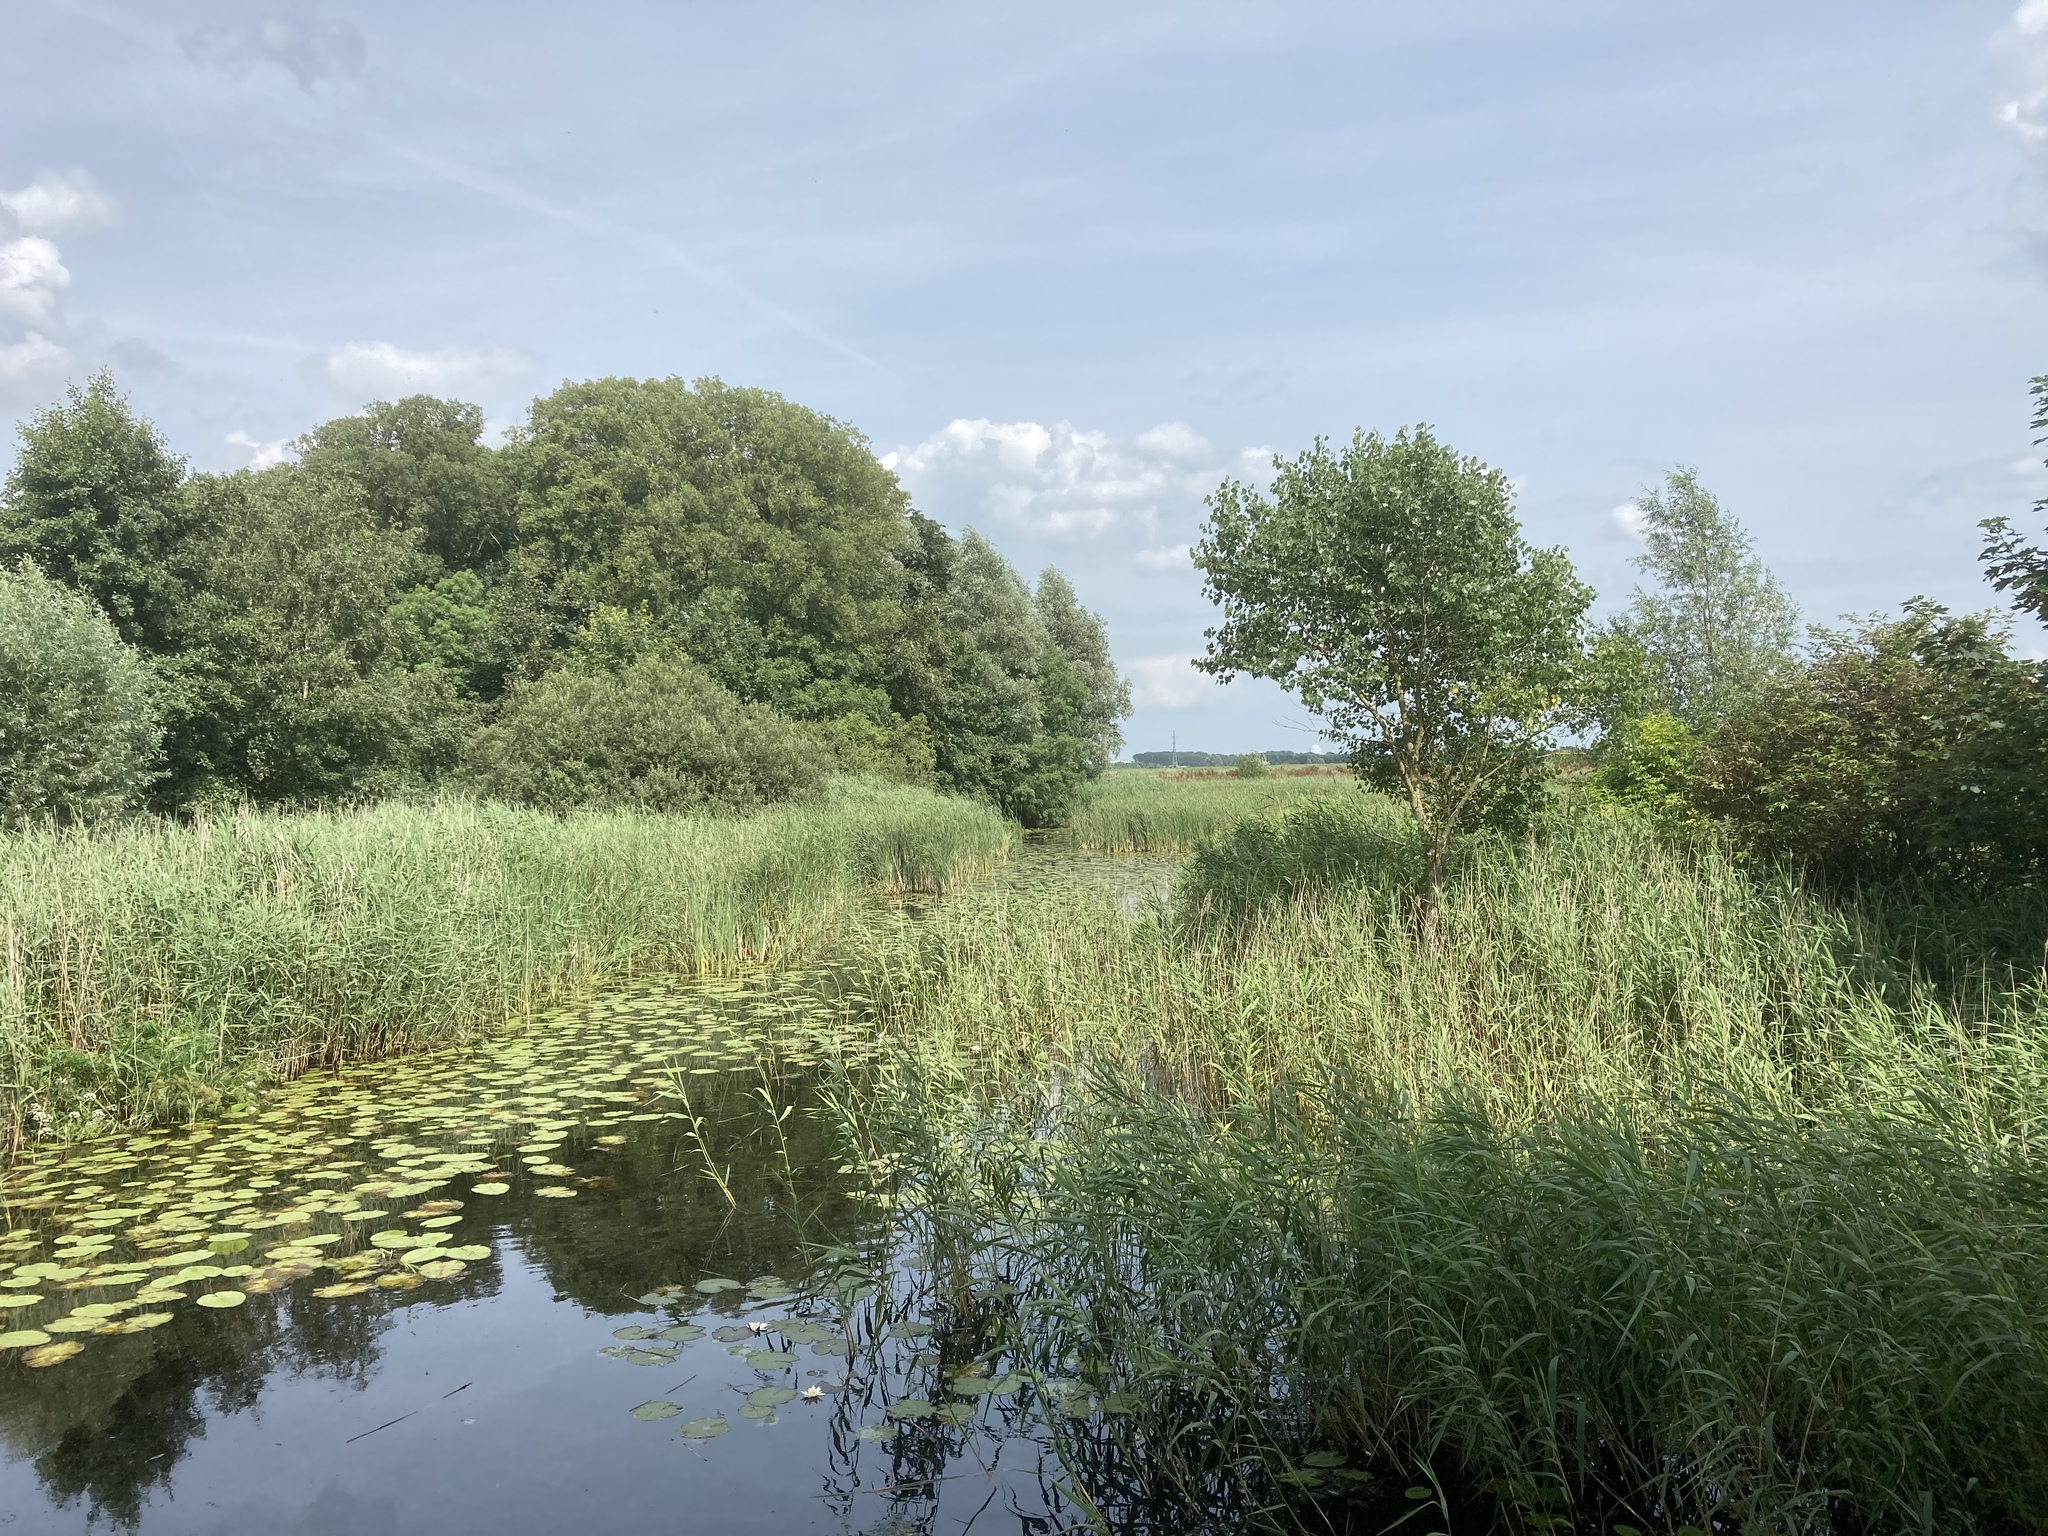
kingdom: Plantae
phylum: Tracheophyta
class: Magnoliopsida
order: Nymphaeales
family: Nymphaeaceae
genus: Nuphar
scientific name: Nuphar lutea
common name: Yellow water-lily
